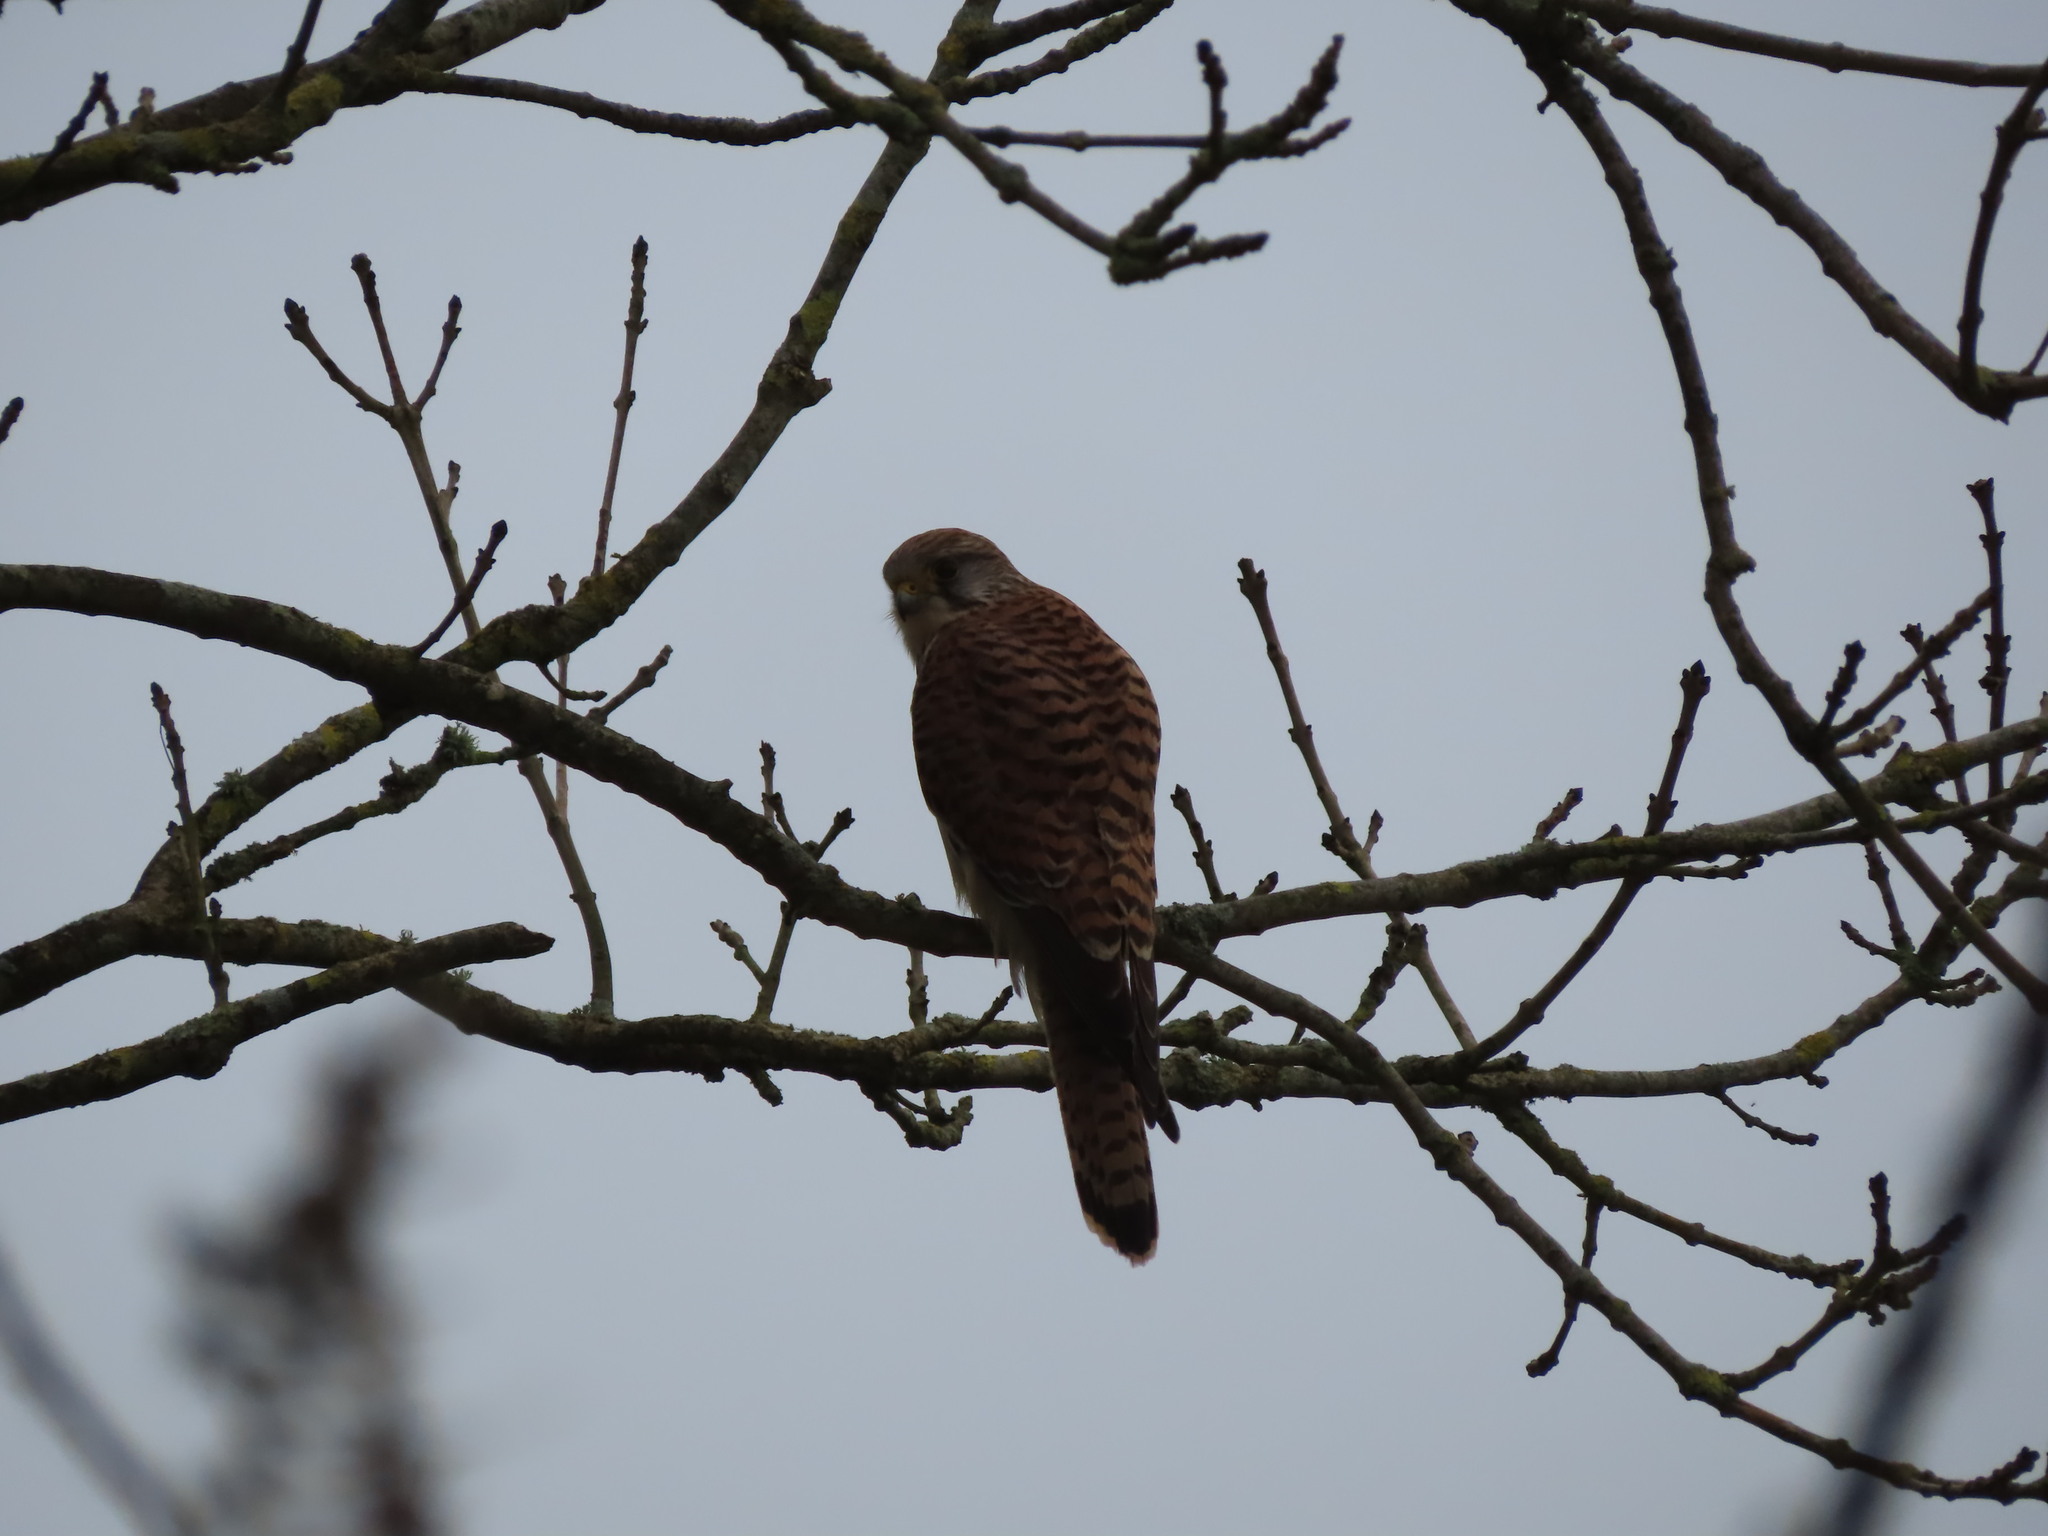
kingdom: Animalia
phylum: Chordata
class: Aves
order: Falconiformes
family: Falconidae
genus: Falco
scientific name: Falco tinnunculus
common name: Common kestrel
